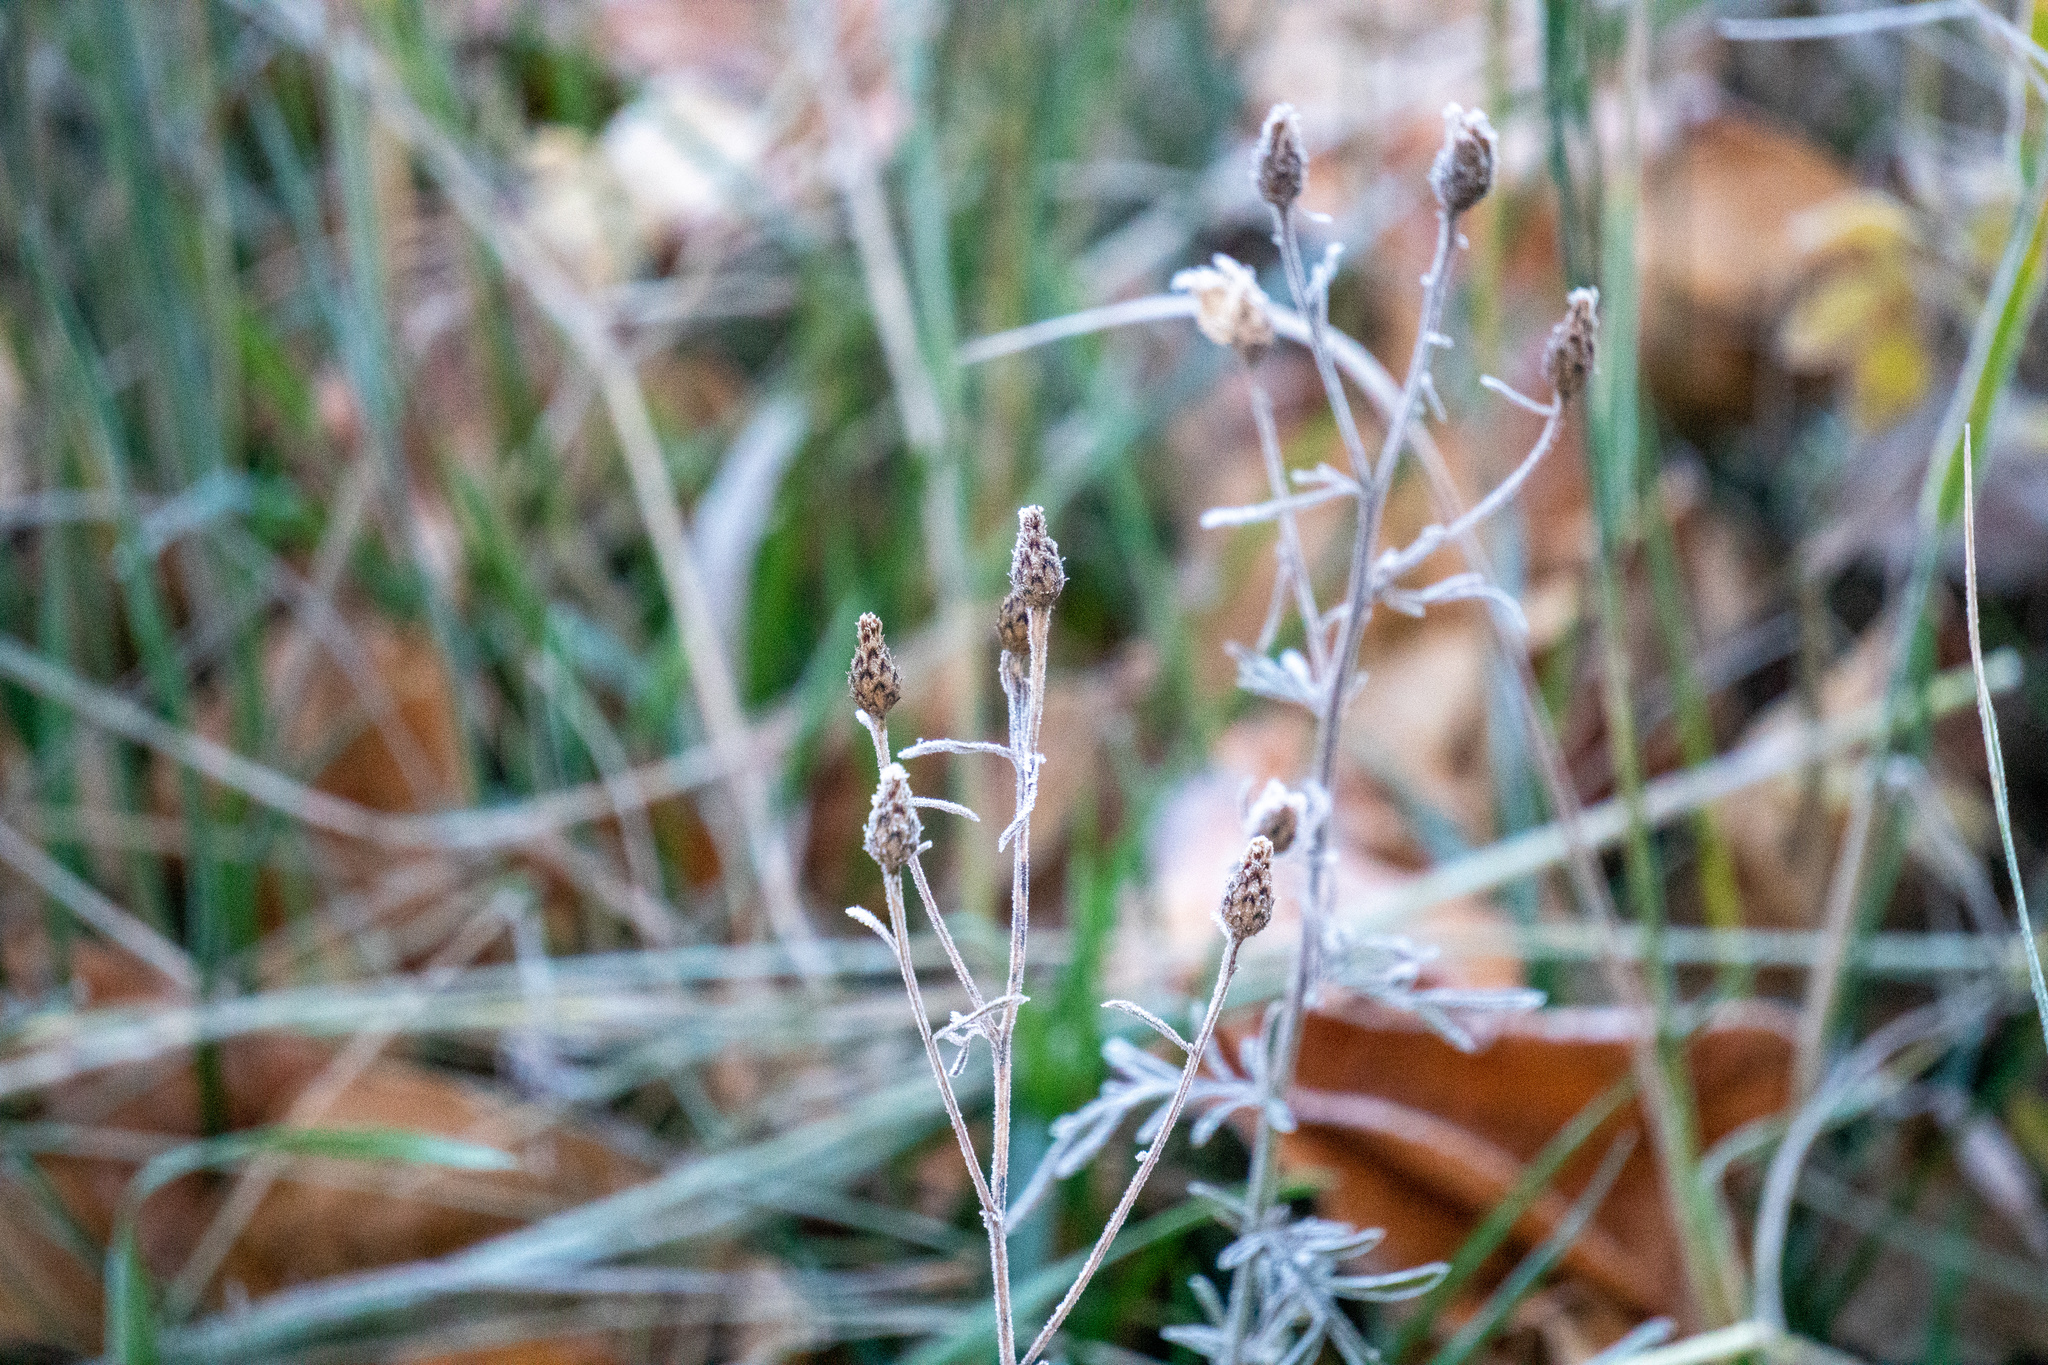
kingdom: Plantae
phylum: Tracheophyta
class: Magnoliopsida
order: Asterales
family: Asteraceae
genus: Centaurea
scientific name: Centaurea stoebe
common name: Spotted knapweed
